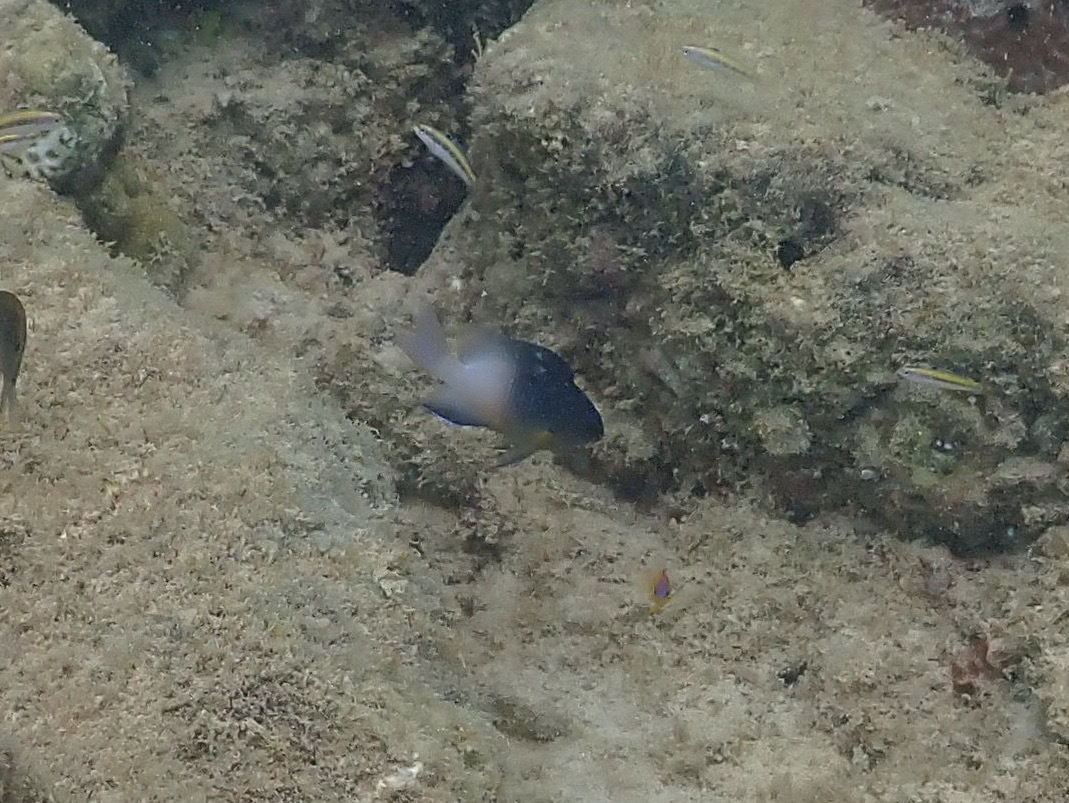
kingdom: Animalia
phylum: Chordata
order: Perciformes
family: Pomacentridae
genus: Stegastes
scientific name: Stegastes partitus
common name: Bicolor damselfish
